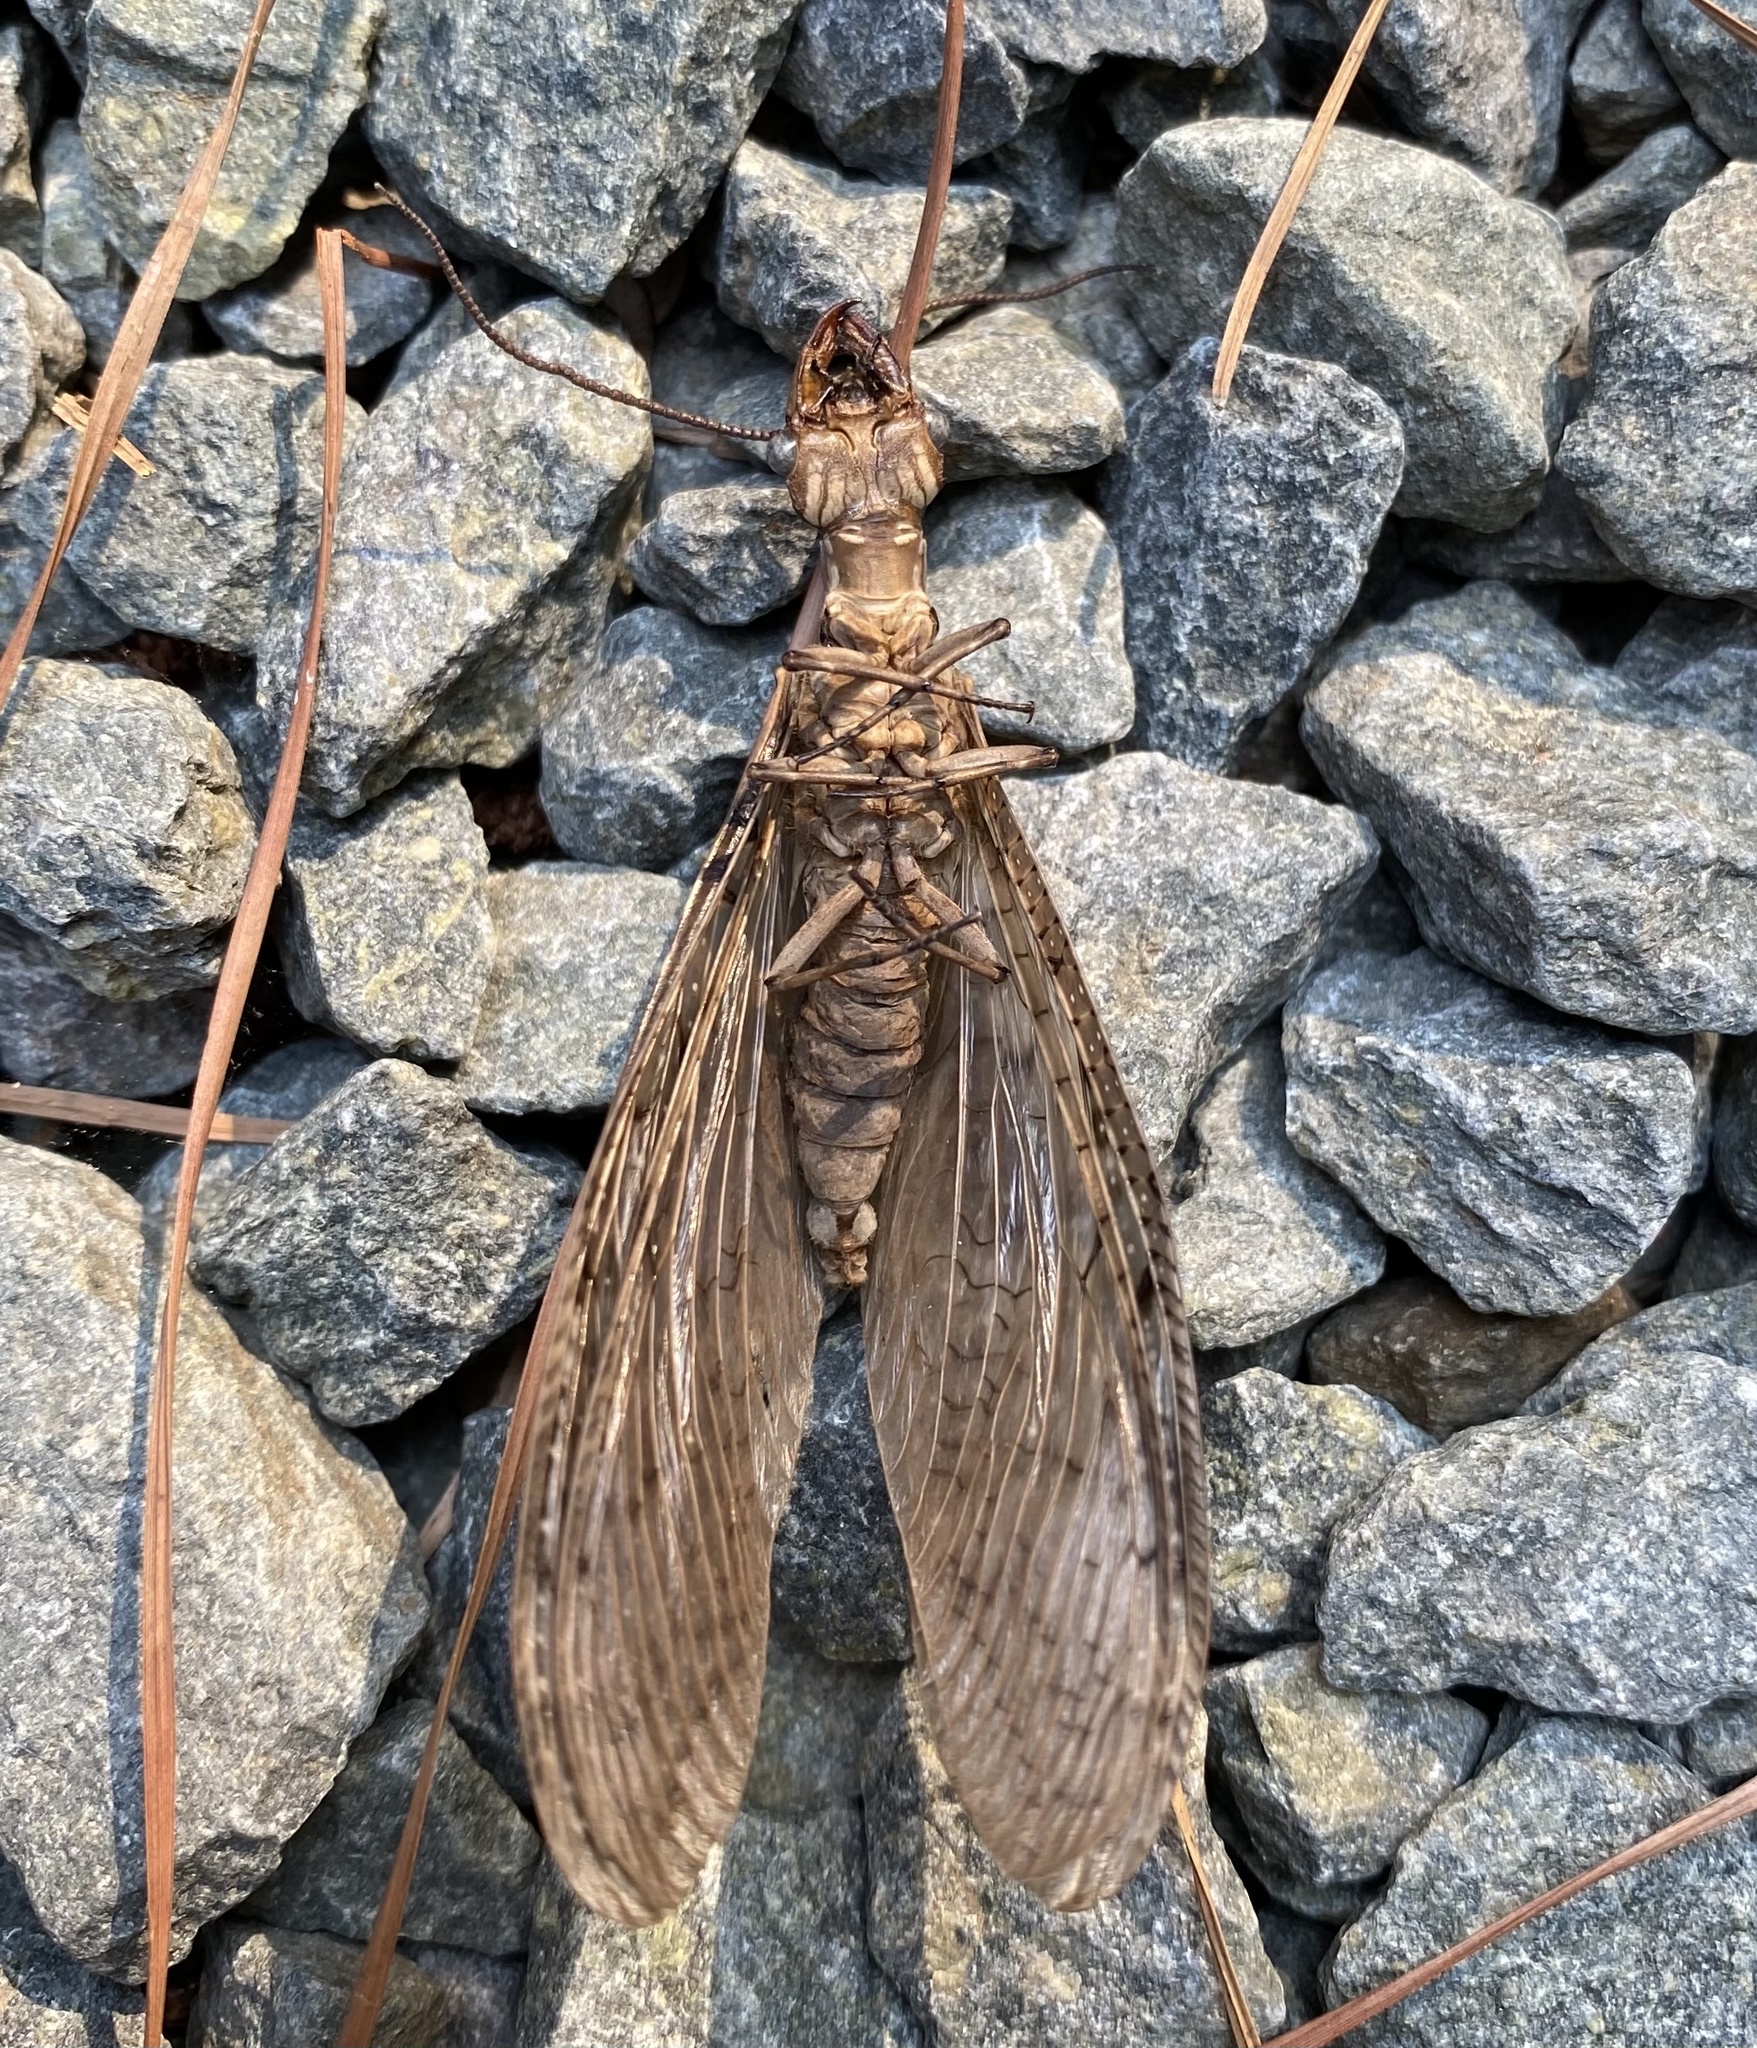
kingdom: Animalia
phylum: Arthropoda
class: Insecta
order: Megaloptera
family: Corydalidae
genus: Corydalus
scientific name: Corydalus cornutus
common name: Dobsonfly
